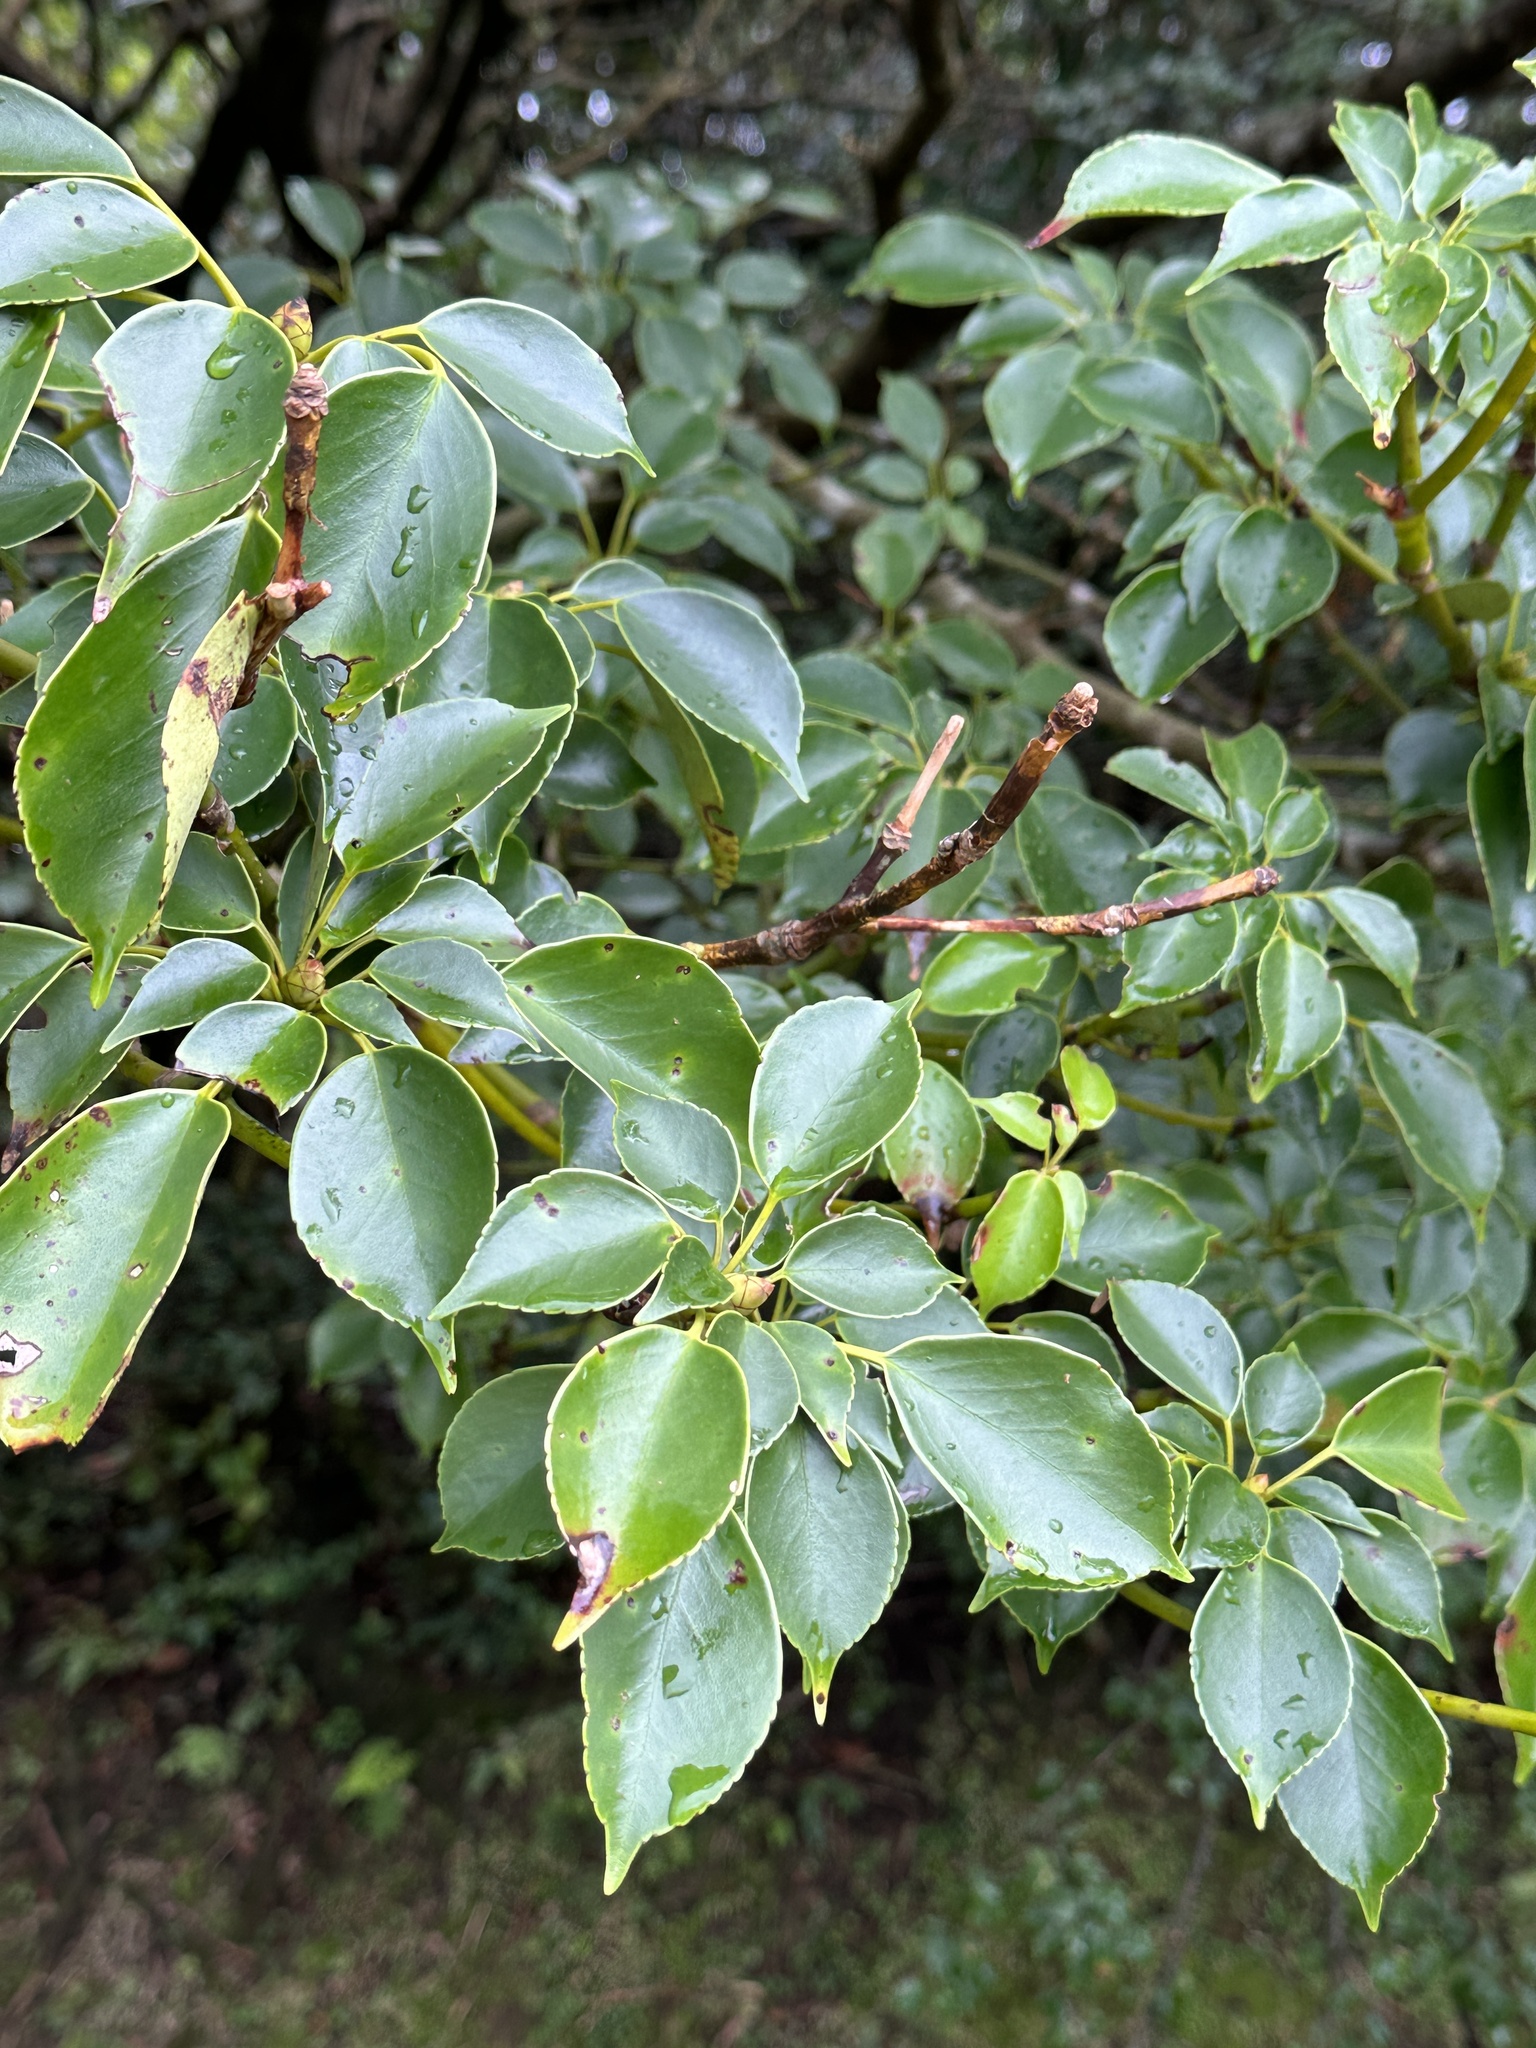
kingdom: Plantae
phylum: Tracheophyta
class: Magnoliopsida
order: Trochodendrales
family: Trochodendraceae
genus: Trochodendron
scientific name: Trochodendron aralioides
